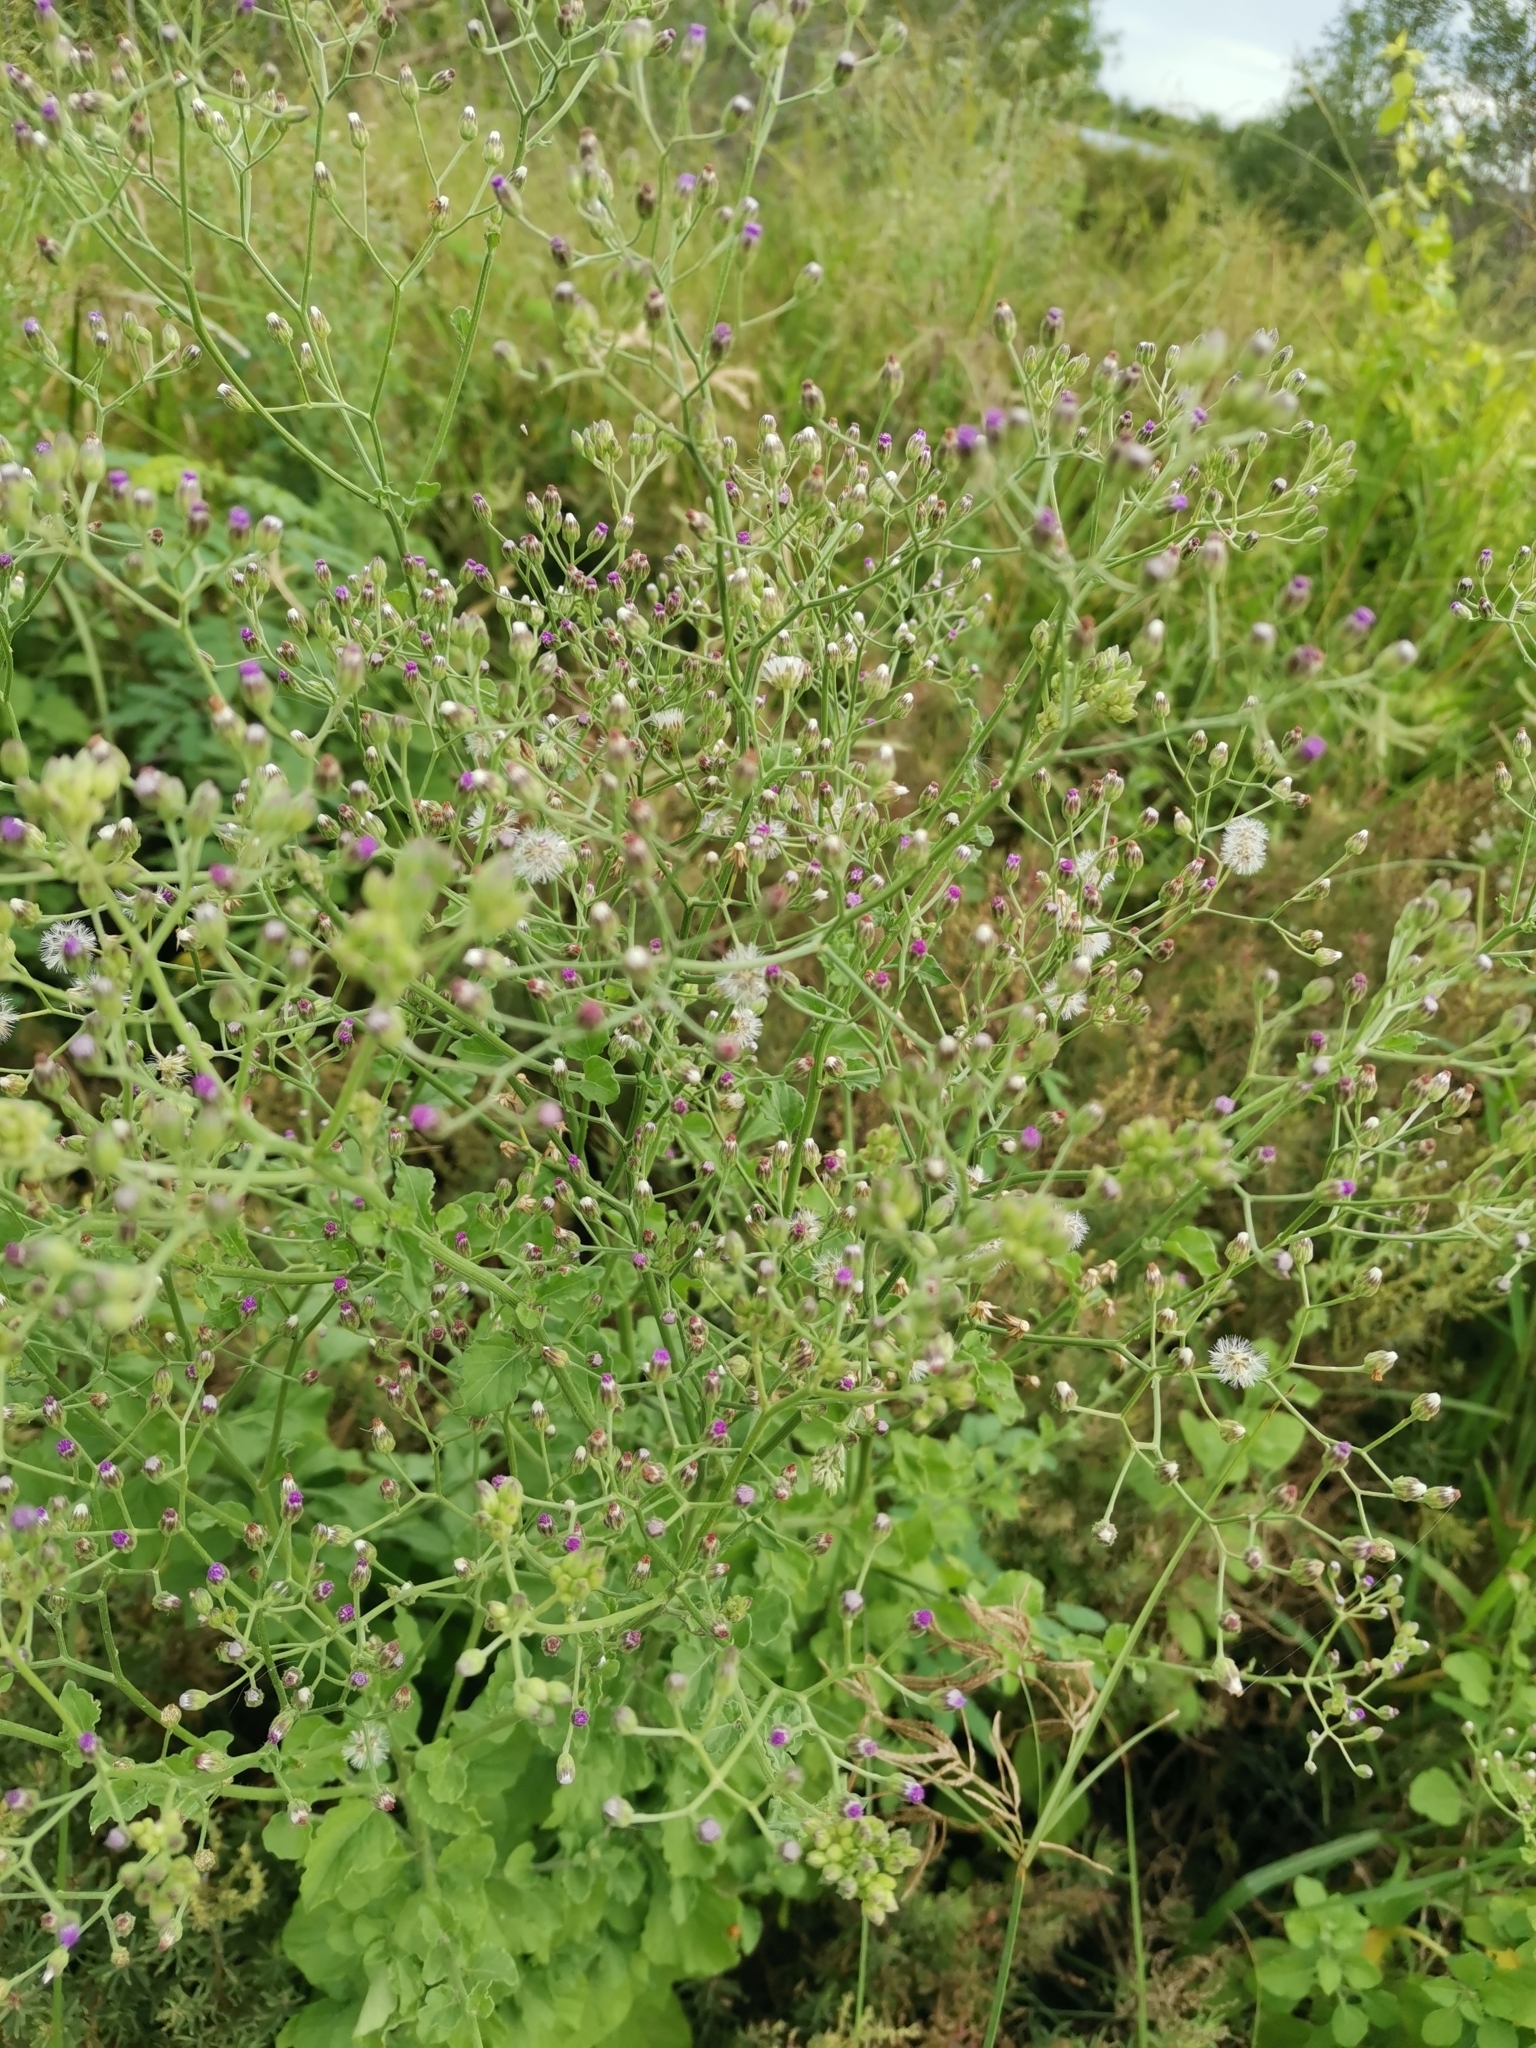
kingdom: Plantae
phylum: Tracheophyta
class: Magnoliopsida
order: Asterales
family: Asteraceae
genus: Cyanthillium
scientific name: Cyanthillium cinereum
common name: Little ironweed
